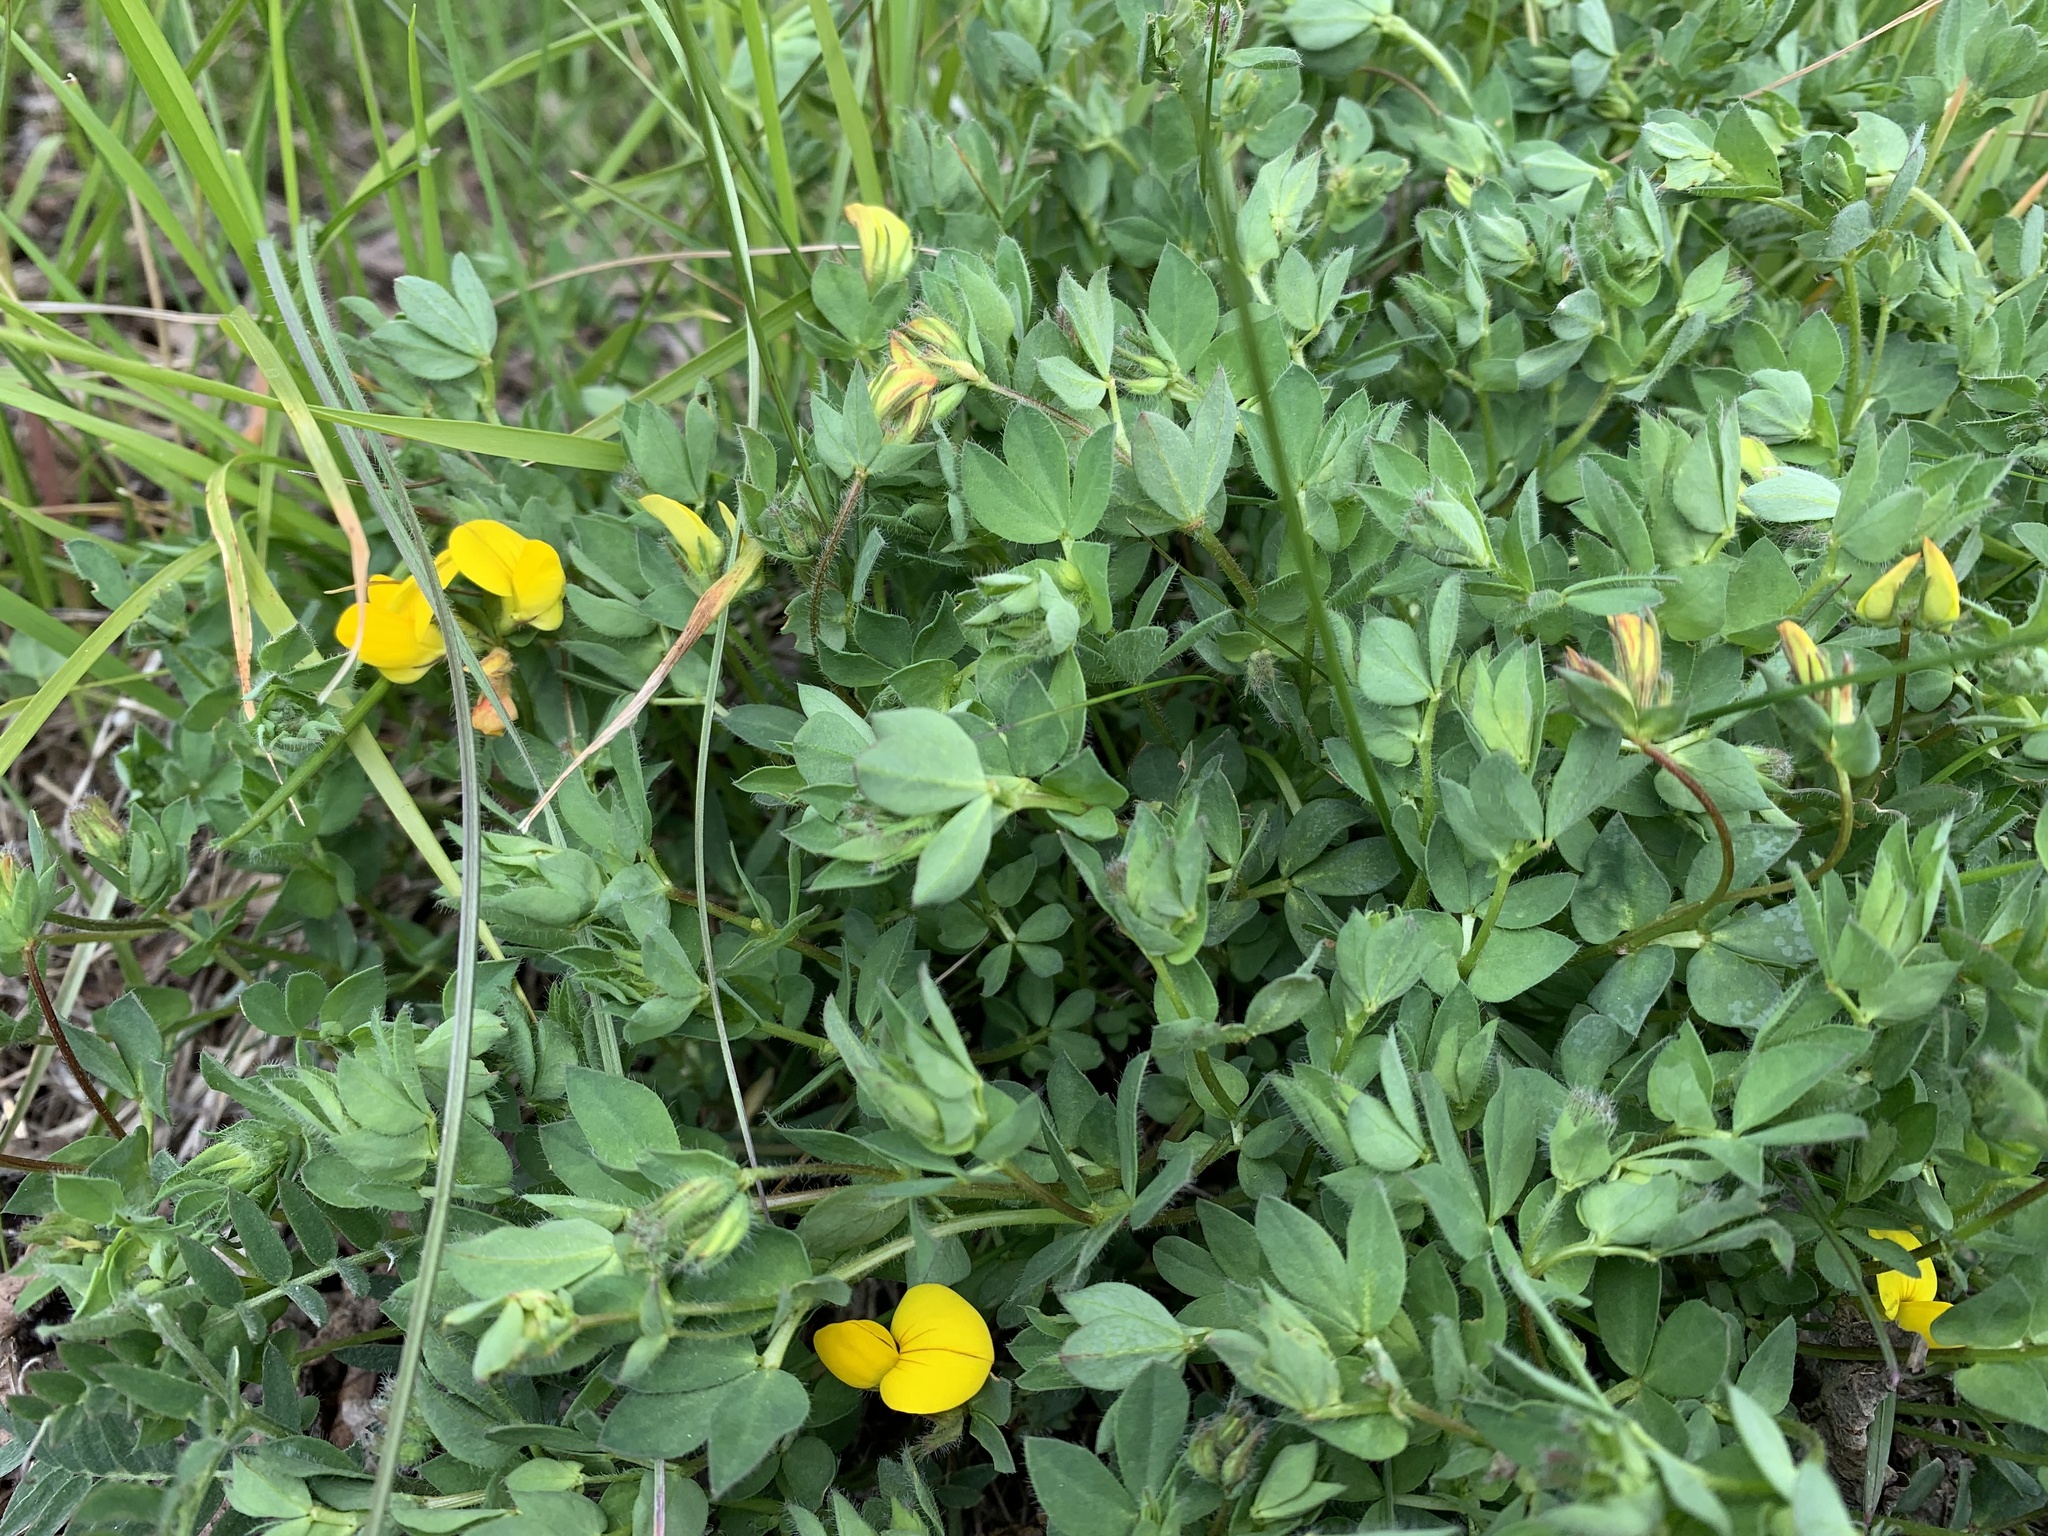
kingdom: Plantae
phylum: Tracheophyta
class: Magnoliopsida
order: Fabales
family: Fabaceae
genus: Lotus
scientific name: Lotus corniculatus
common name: Common bird's-foot-trefoil
